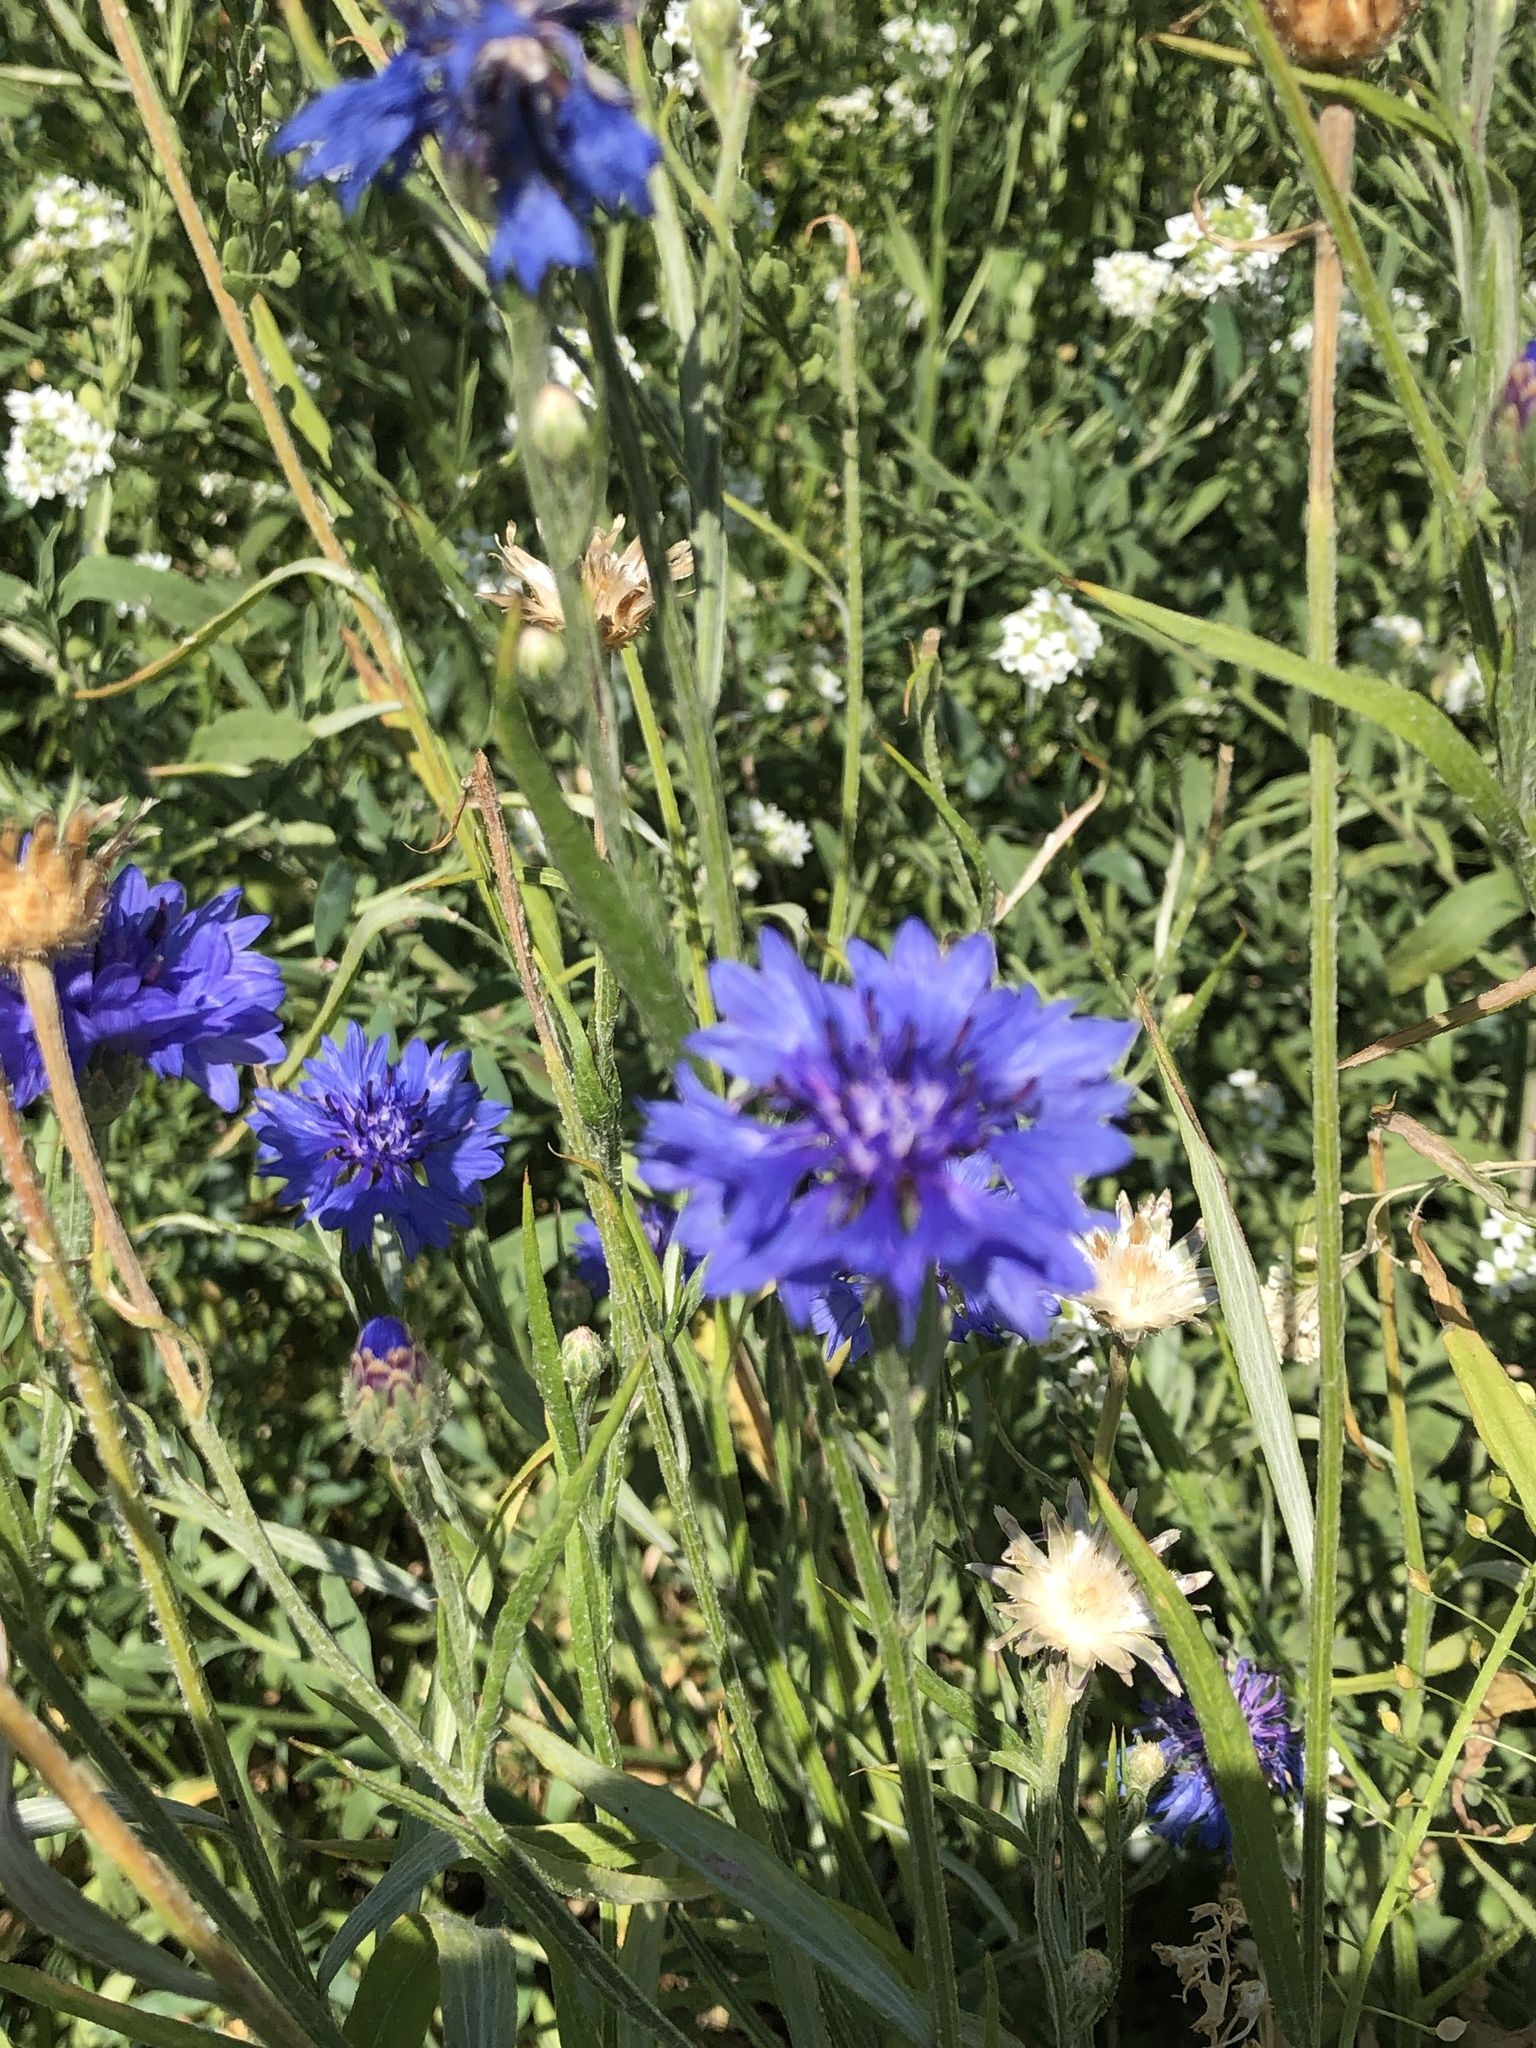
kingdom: Plantae
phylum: Tracheophyta
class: Magnoliopsida
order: Asterales
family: Asteraceae
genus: Centaurea
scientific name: Centaurea cyanus
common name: Cornflower
